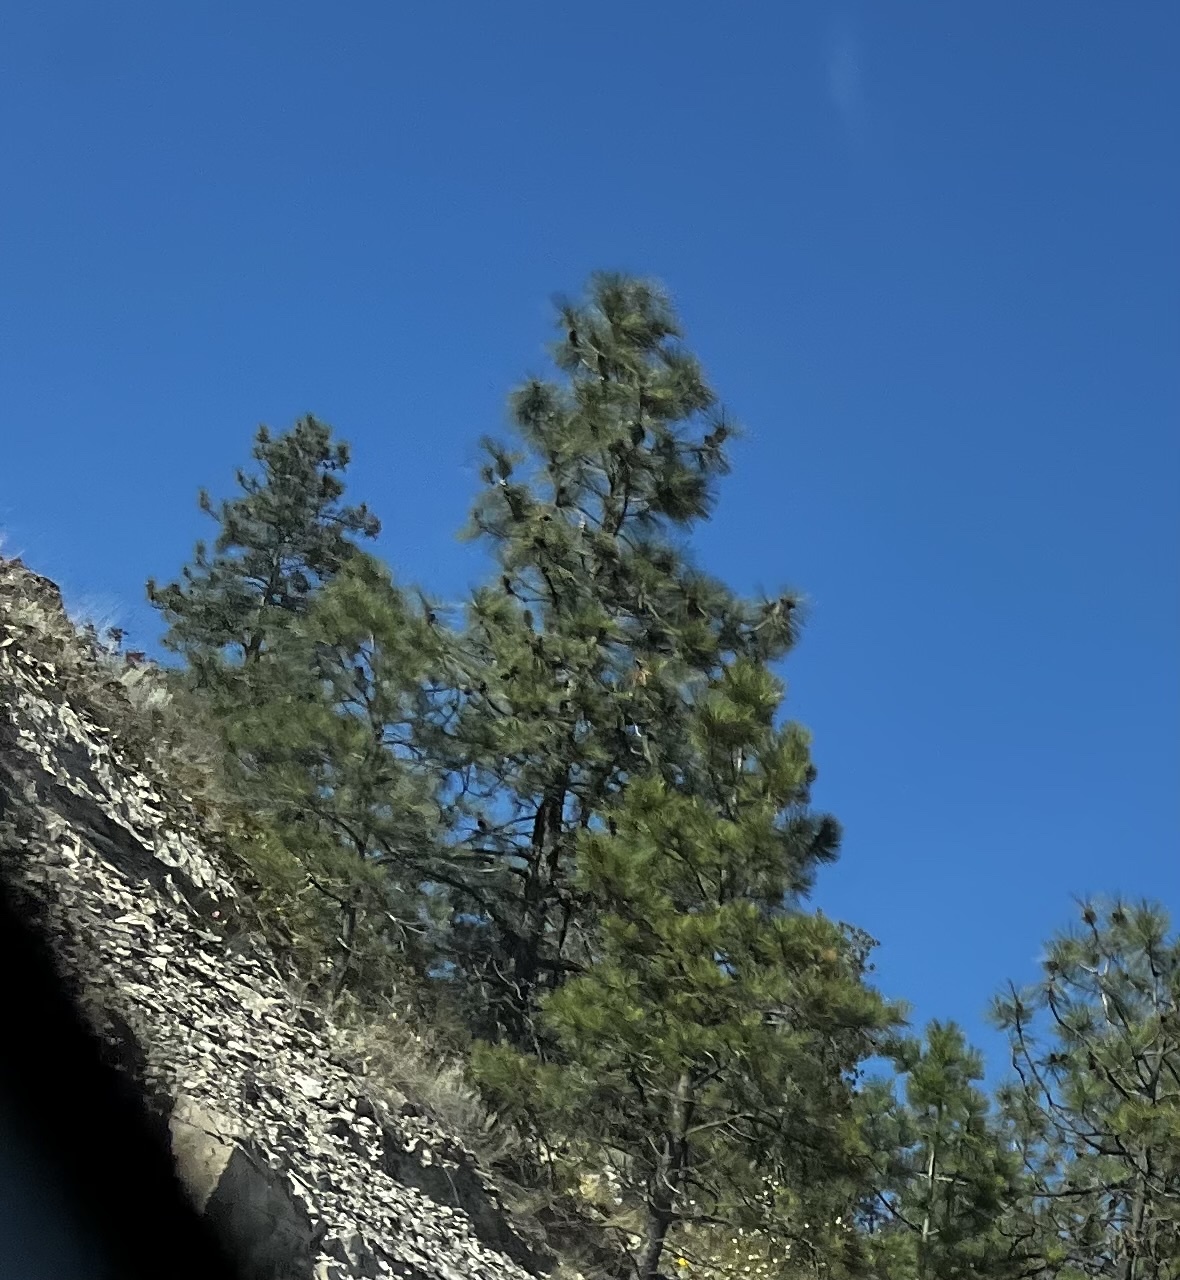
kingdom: Plantae
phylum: Tracheophyta
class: Pinopsida
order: Pinales
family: Pinaceae
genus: Pinus
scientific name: Pinus ponderosa
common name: Western yellow-pine
